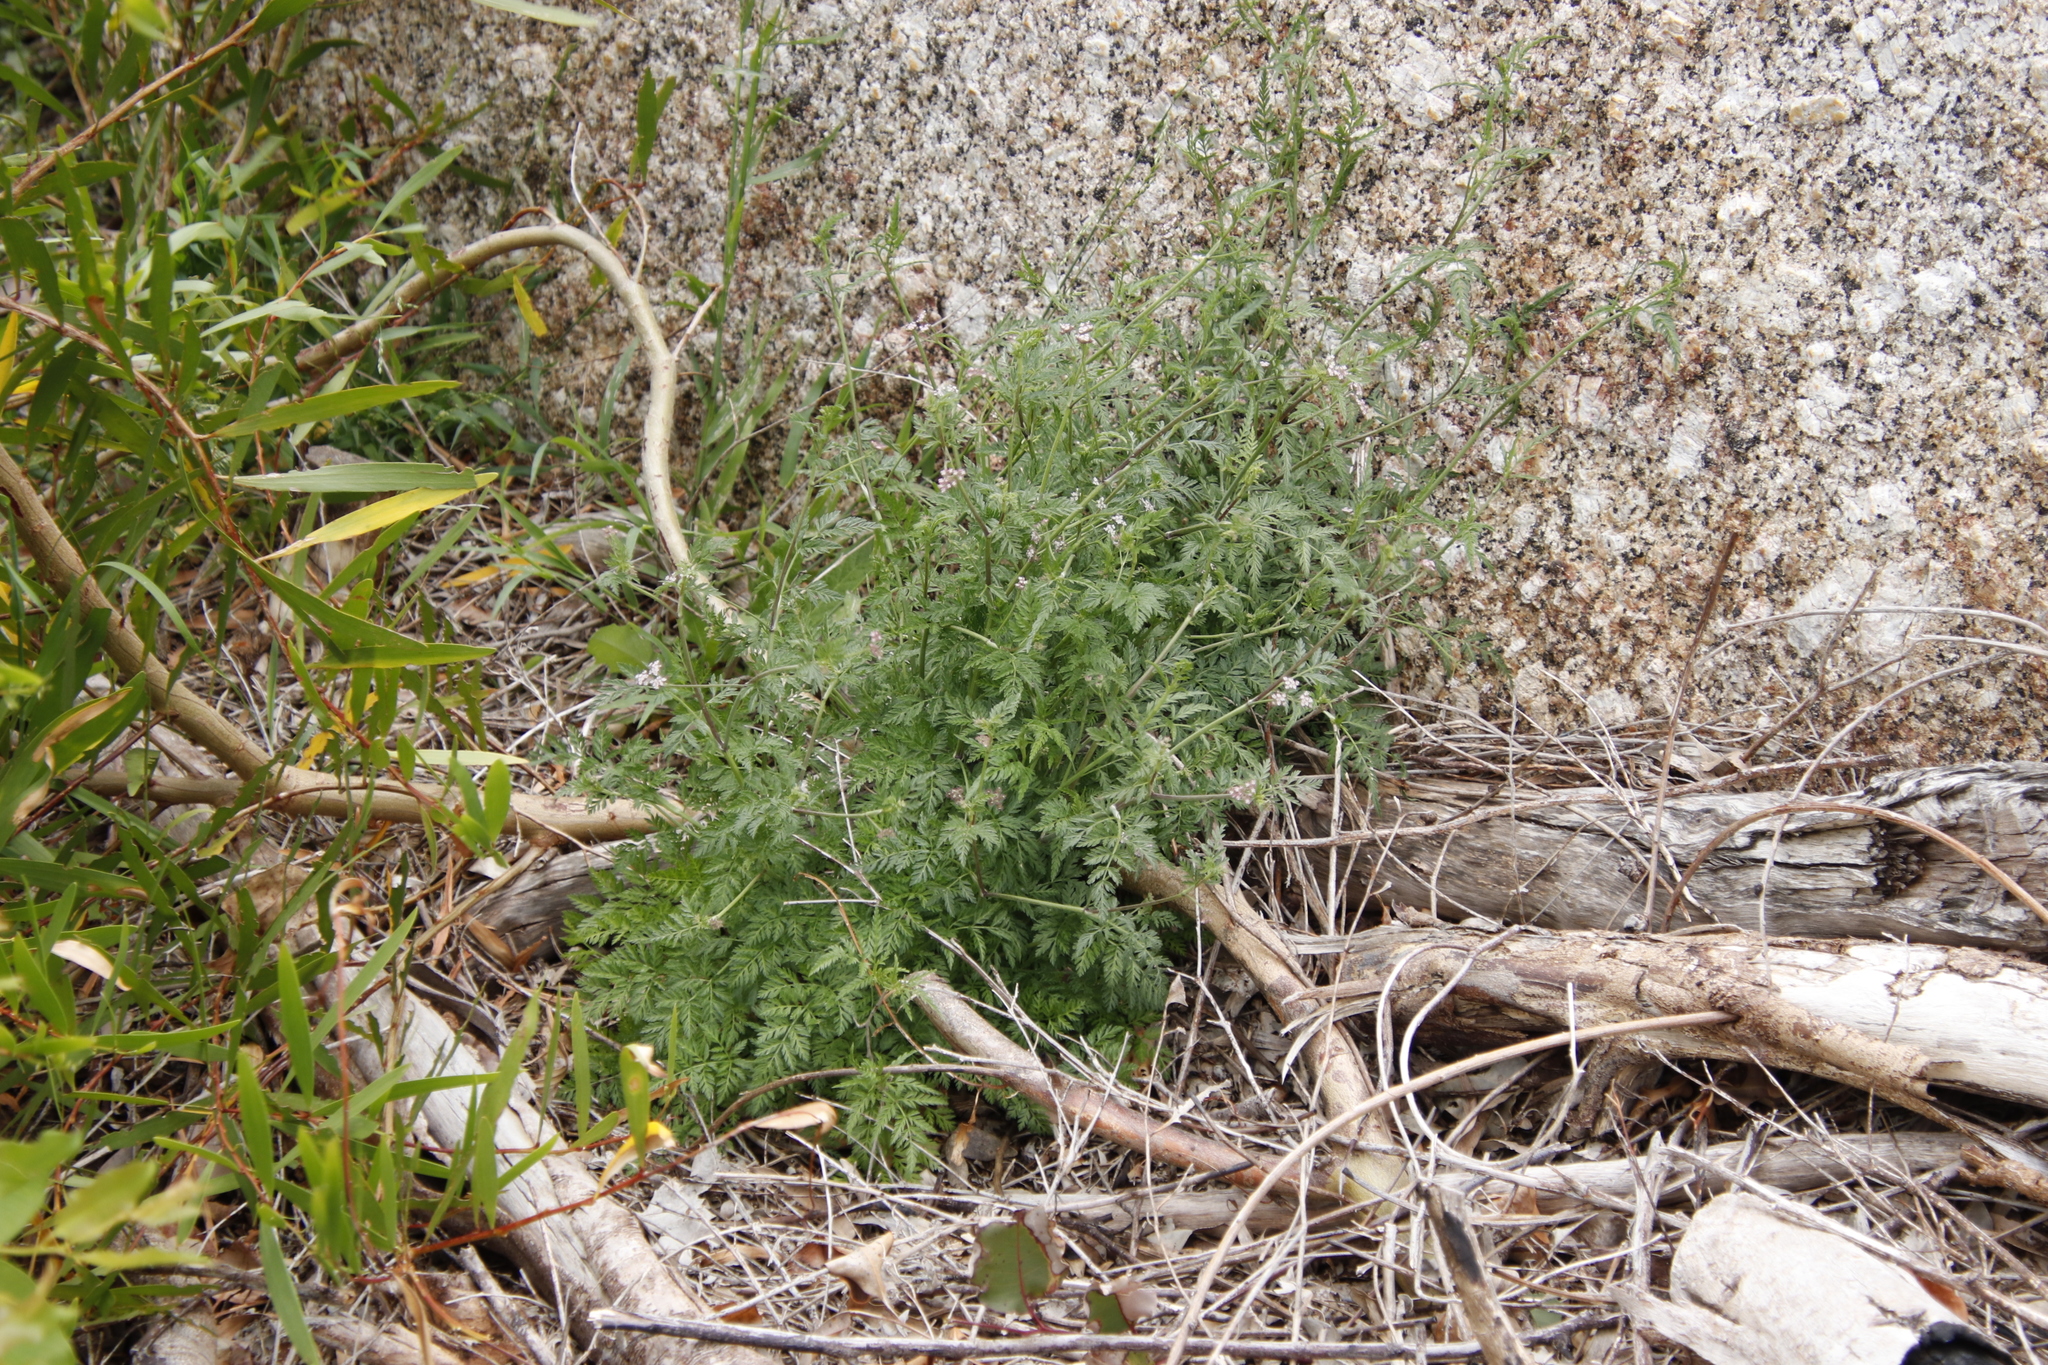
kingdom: Plantae
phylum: Tracheophyta
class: Magnoliopsida
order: Apiales
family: Apiaceae
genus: Torilis
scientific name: Torilis arvensis
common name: Spreading hedge-parsley
